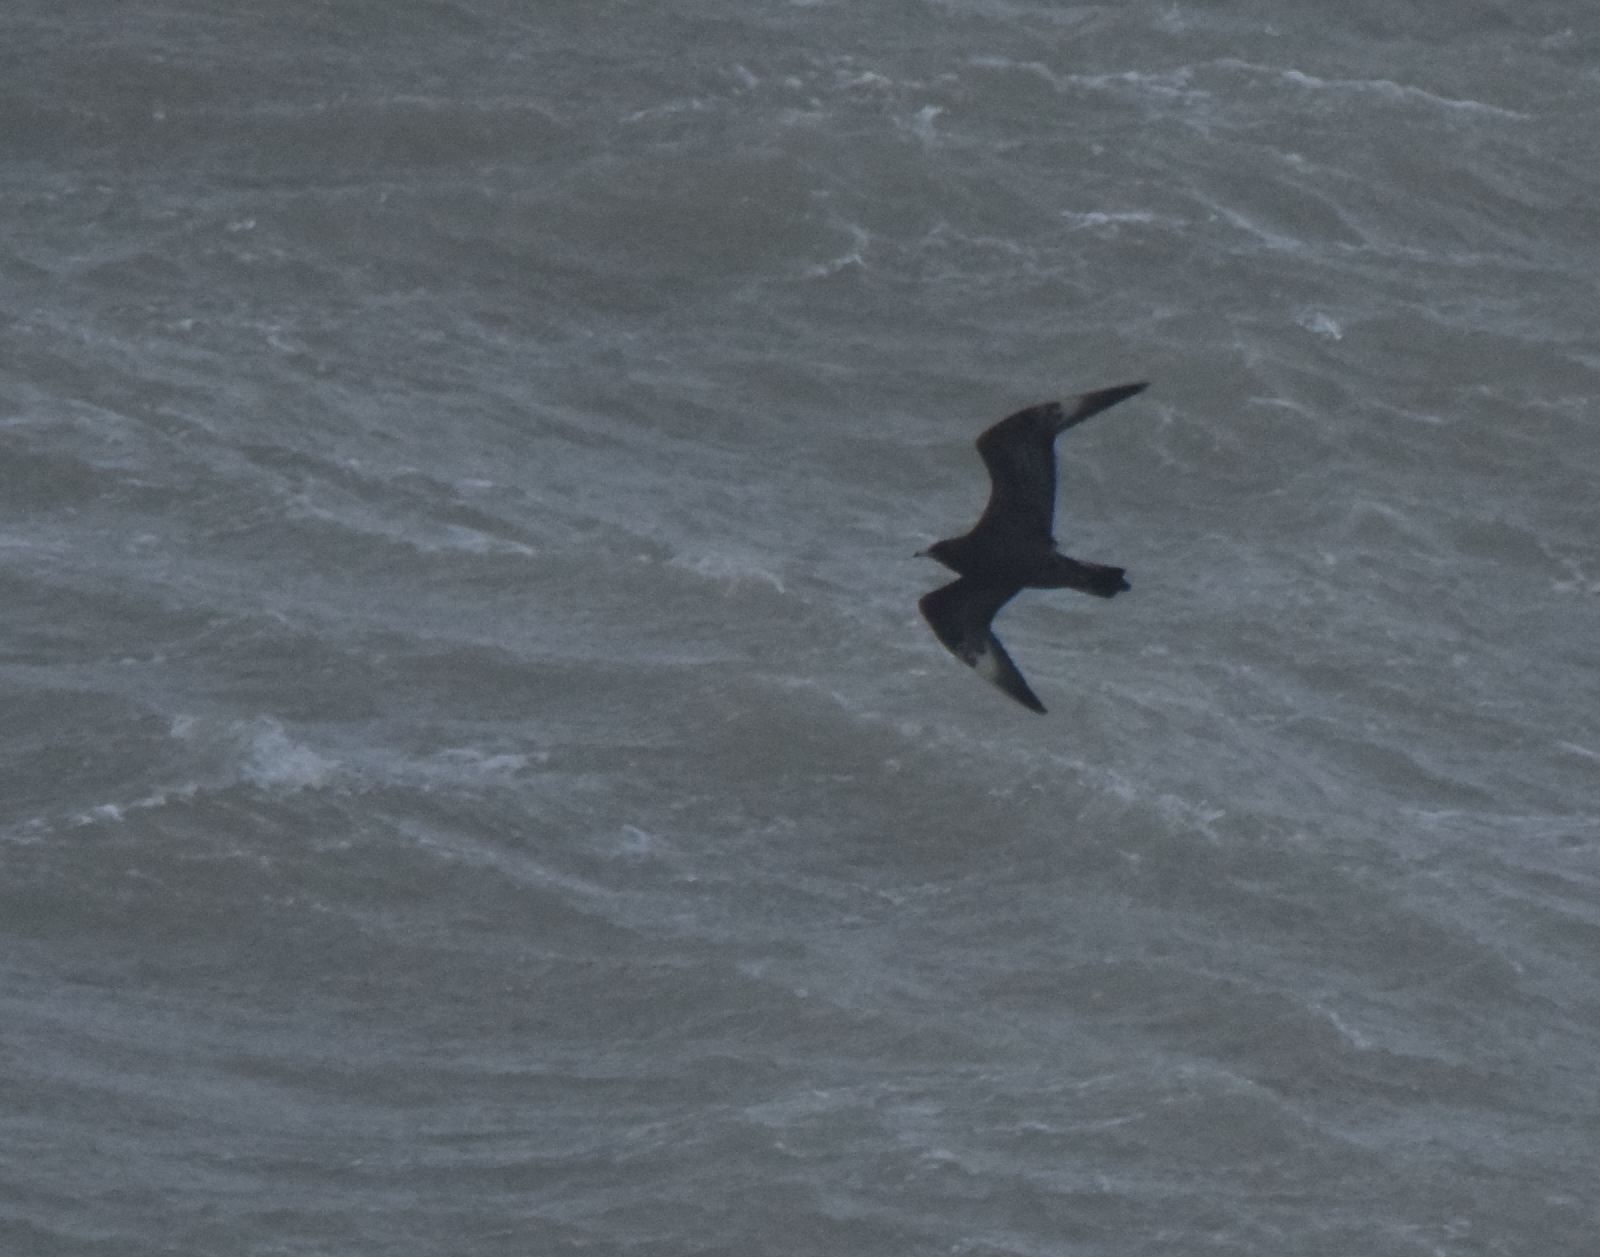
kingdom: Animalia
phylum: Chordata
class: Aves
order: Charadriiformes
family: Stercorariidae
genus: Stercorarius
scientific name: Stercorarius pomarinus
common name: Pomarine jaeger
